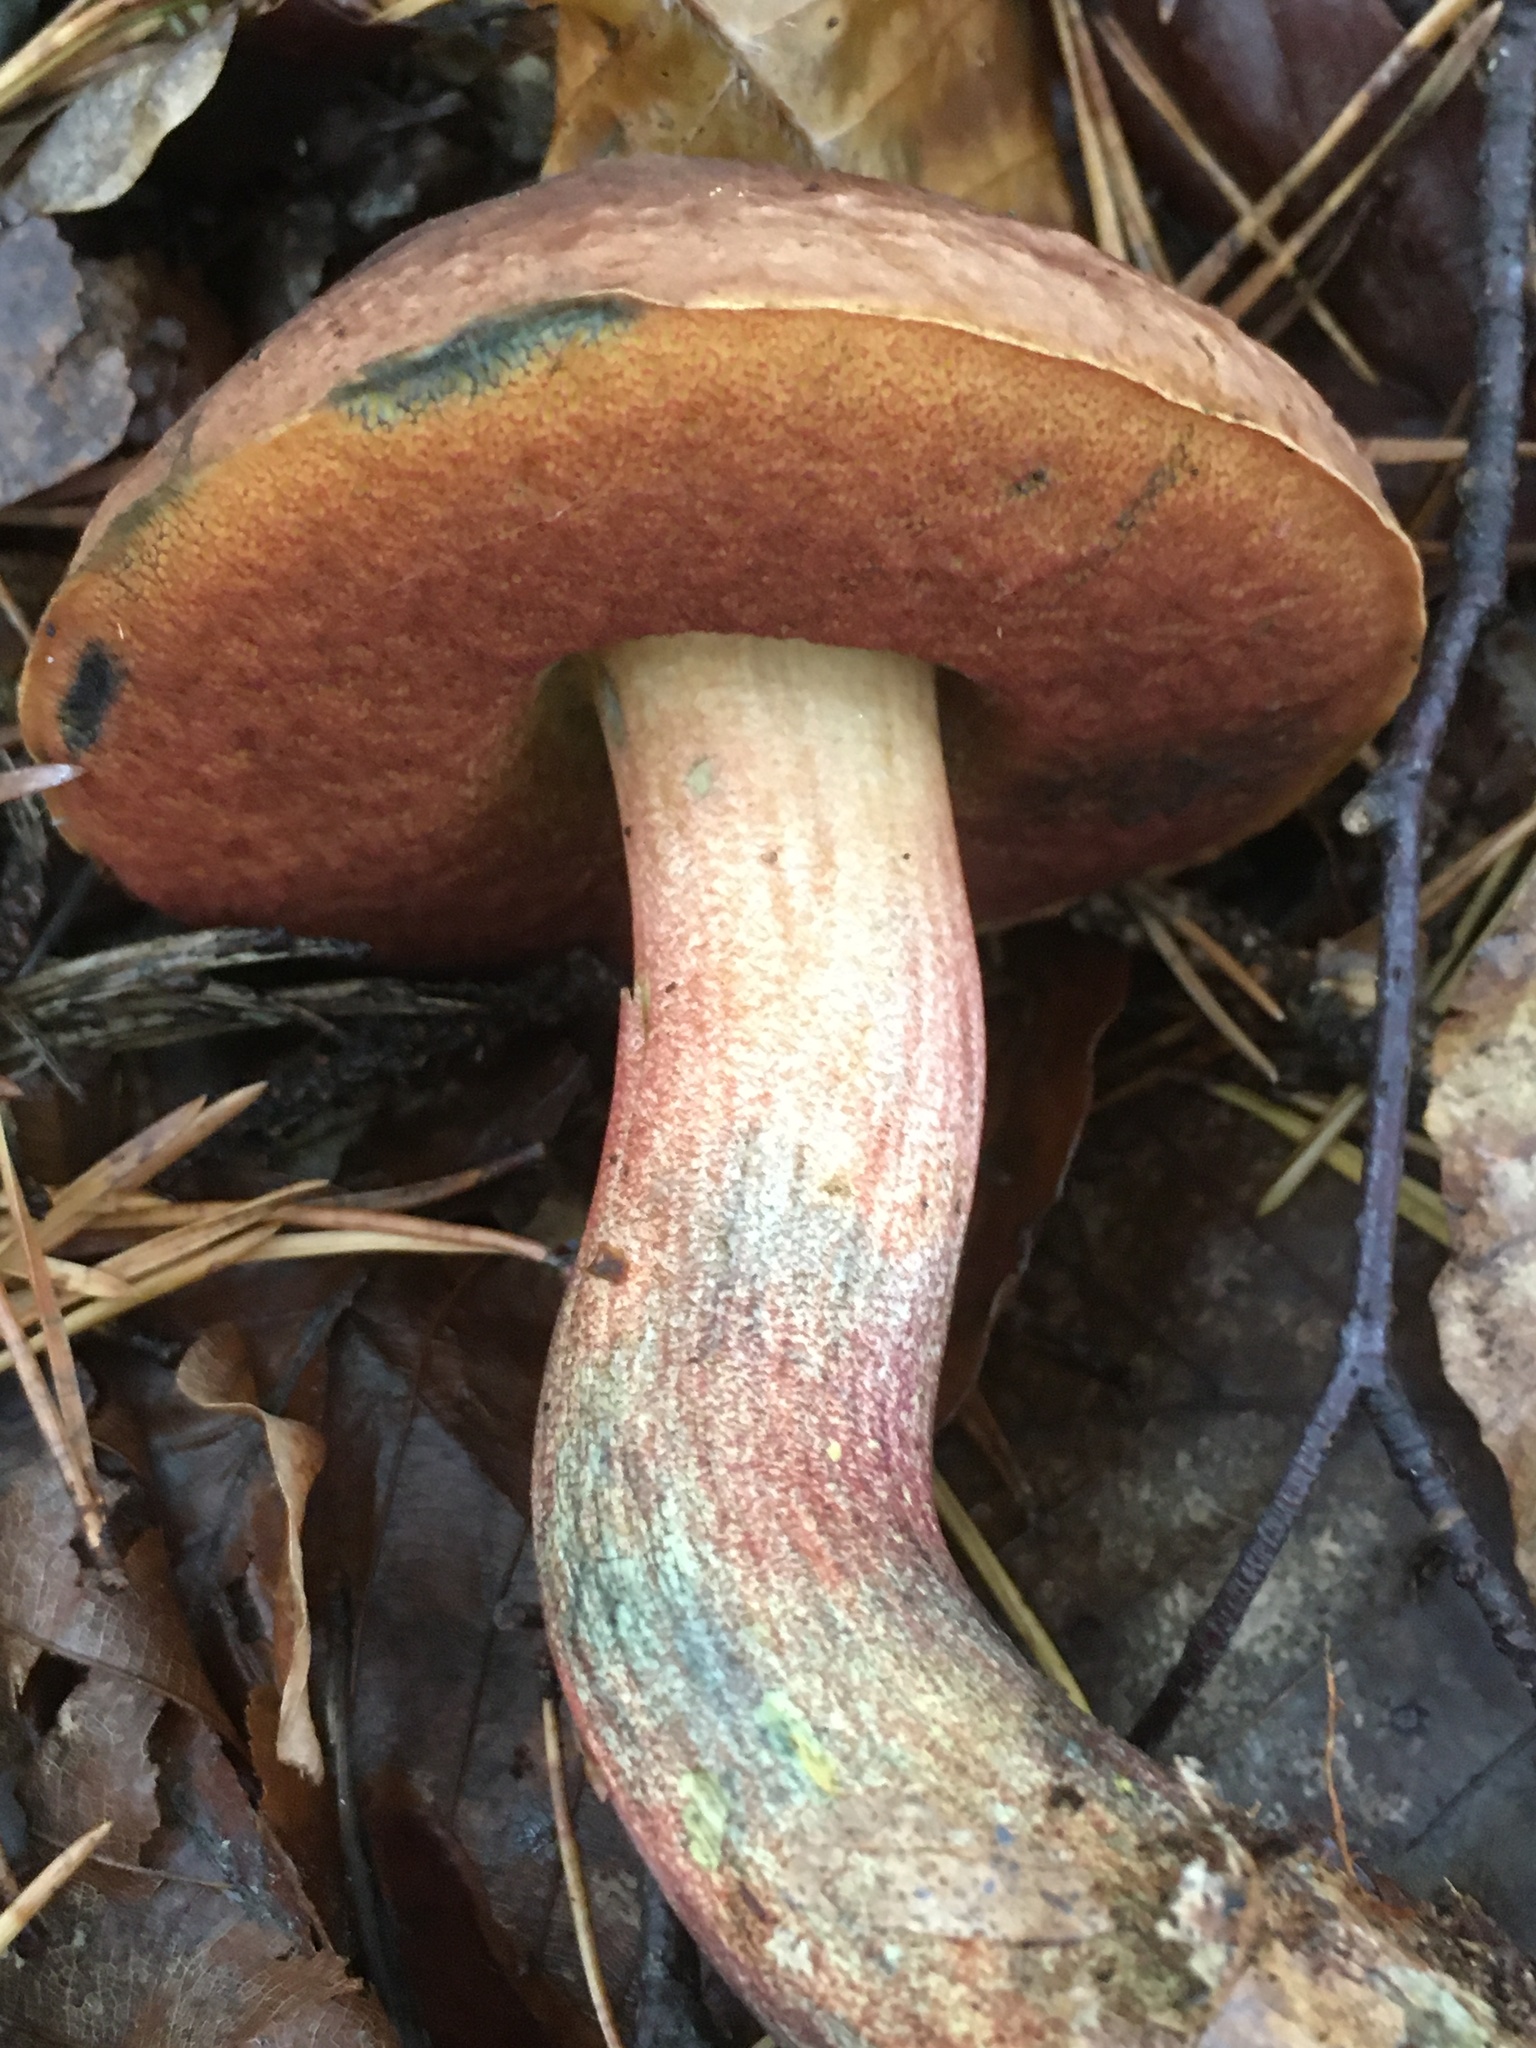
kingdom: Fungi
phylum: Basidiomycota
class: Agaricomycetes
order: Boletales
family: Boletaceae
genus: Neoboletus
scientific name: Neoboletus erythropus
